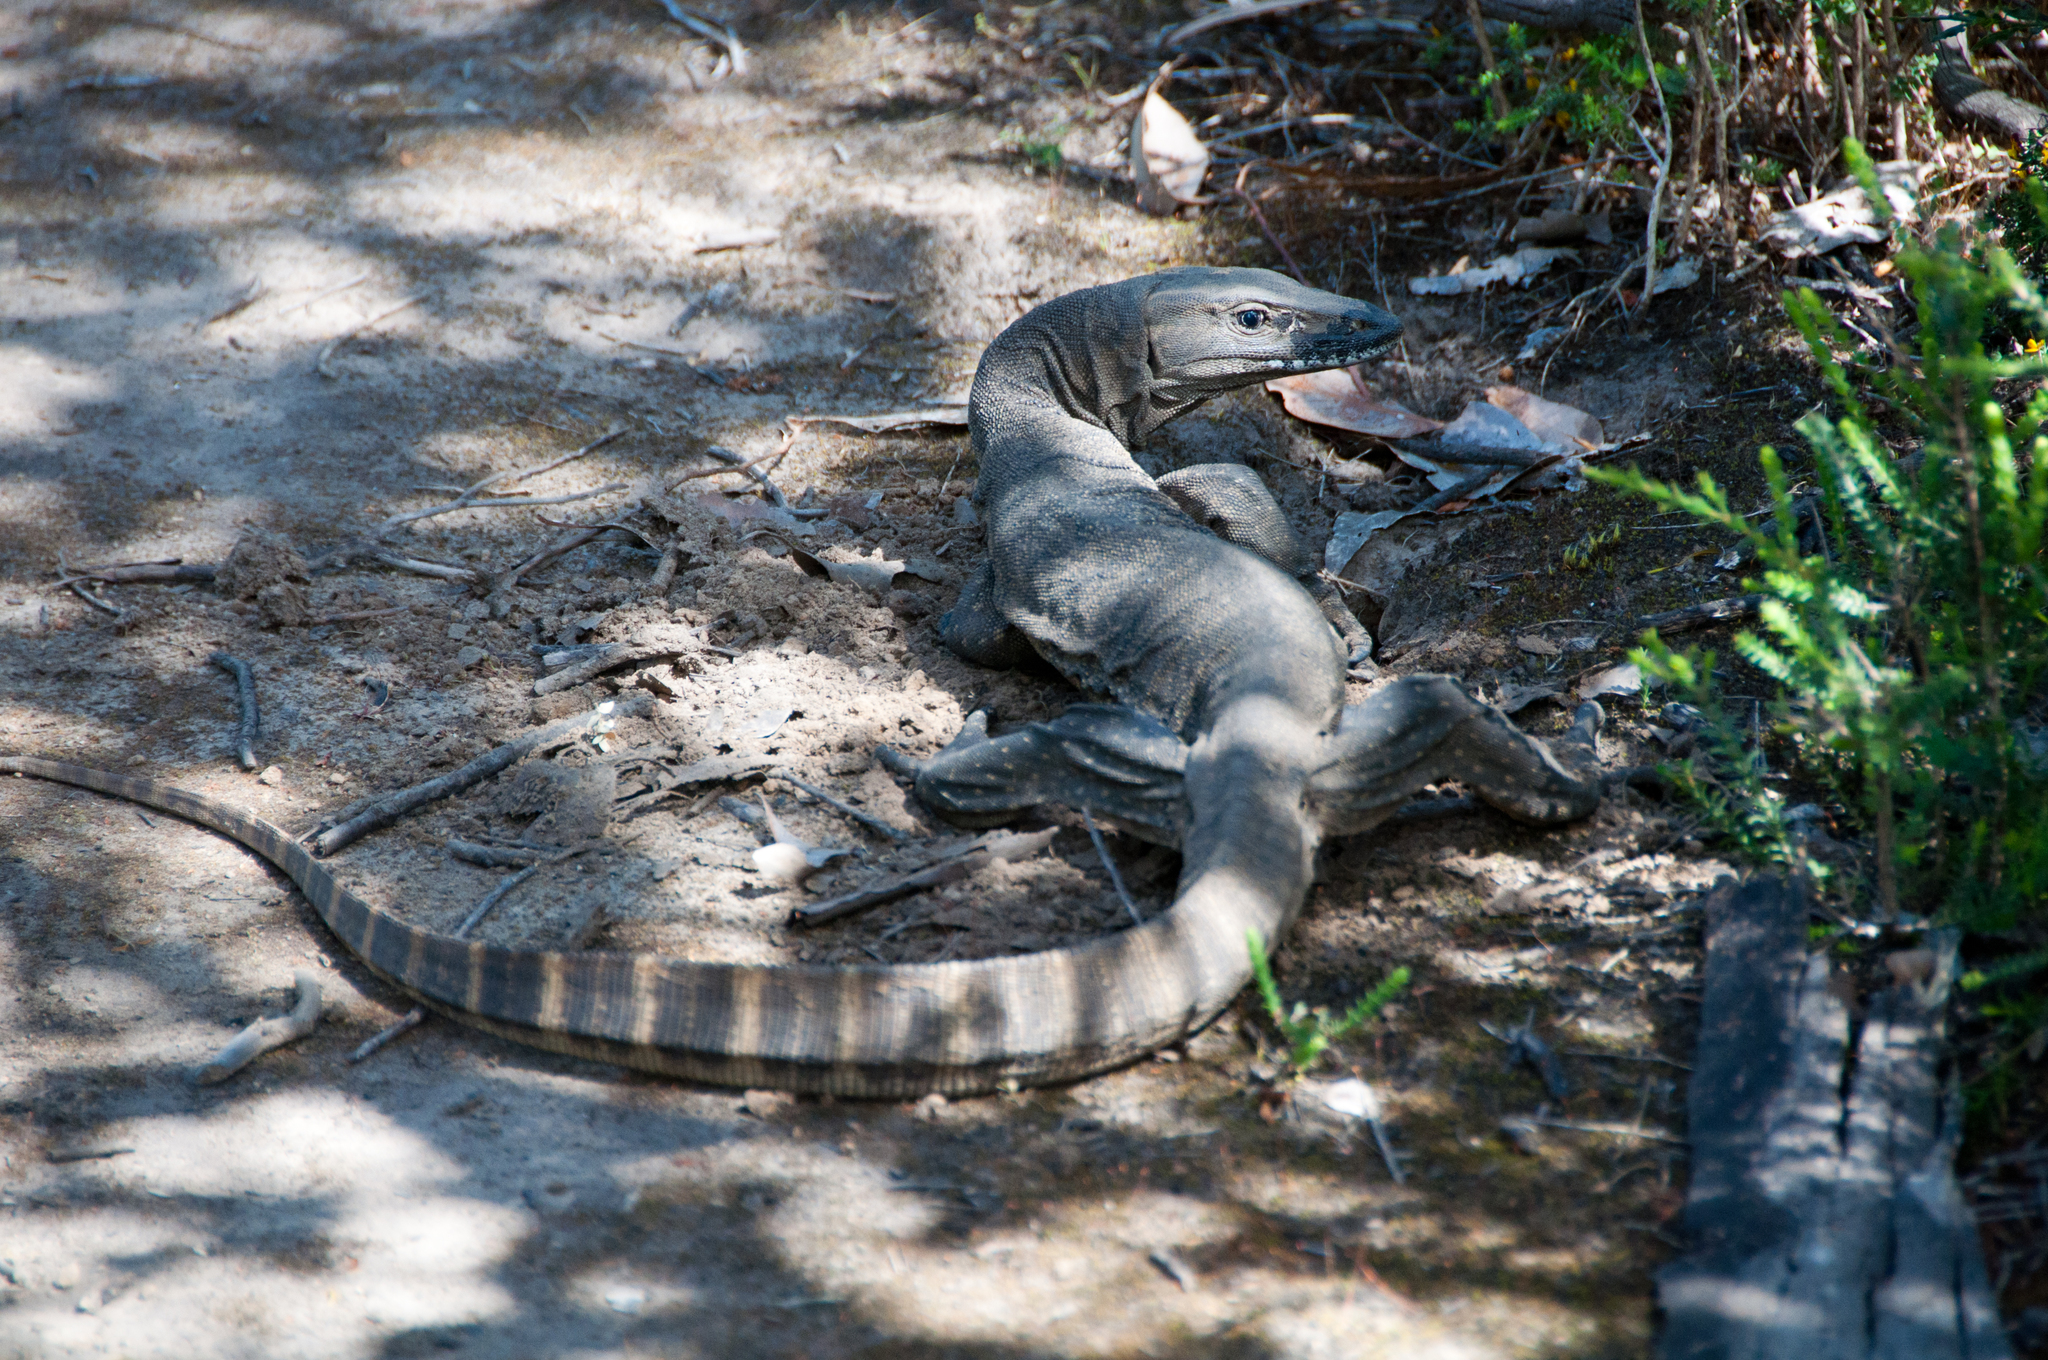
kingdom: Animalia
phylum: Chordata
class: Squamata
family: Varanidae
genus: Varanus
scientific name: Varanus rosenbergi
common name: Heath monitor
